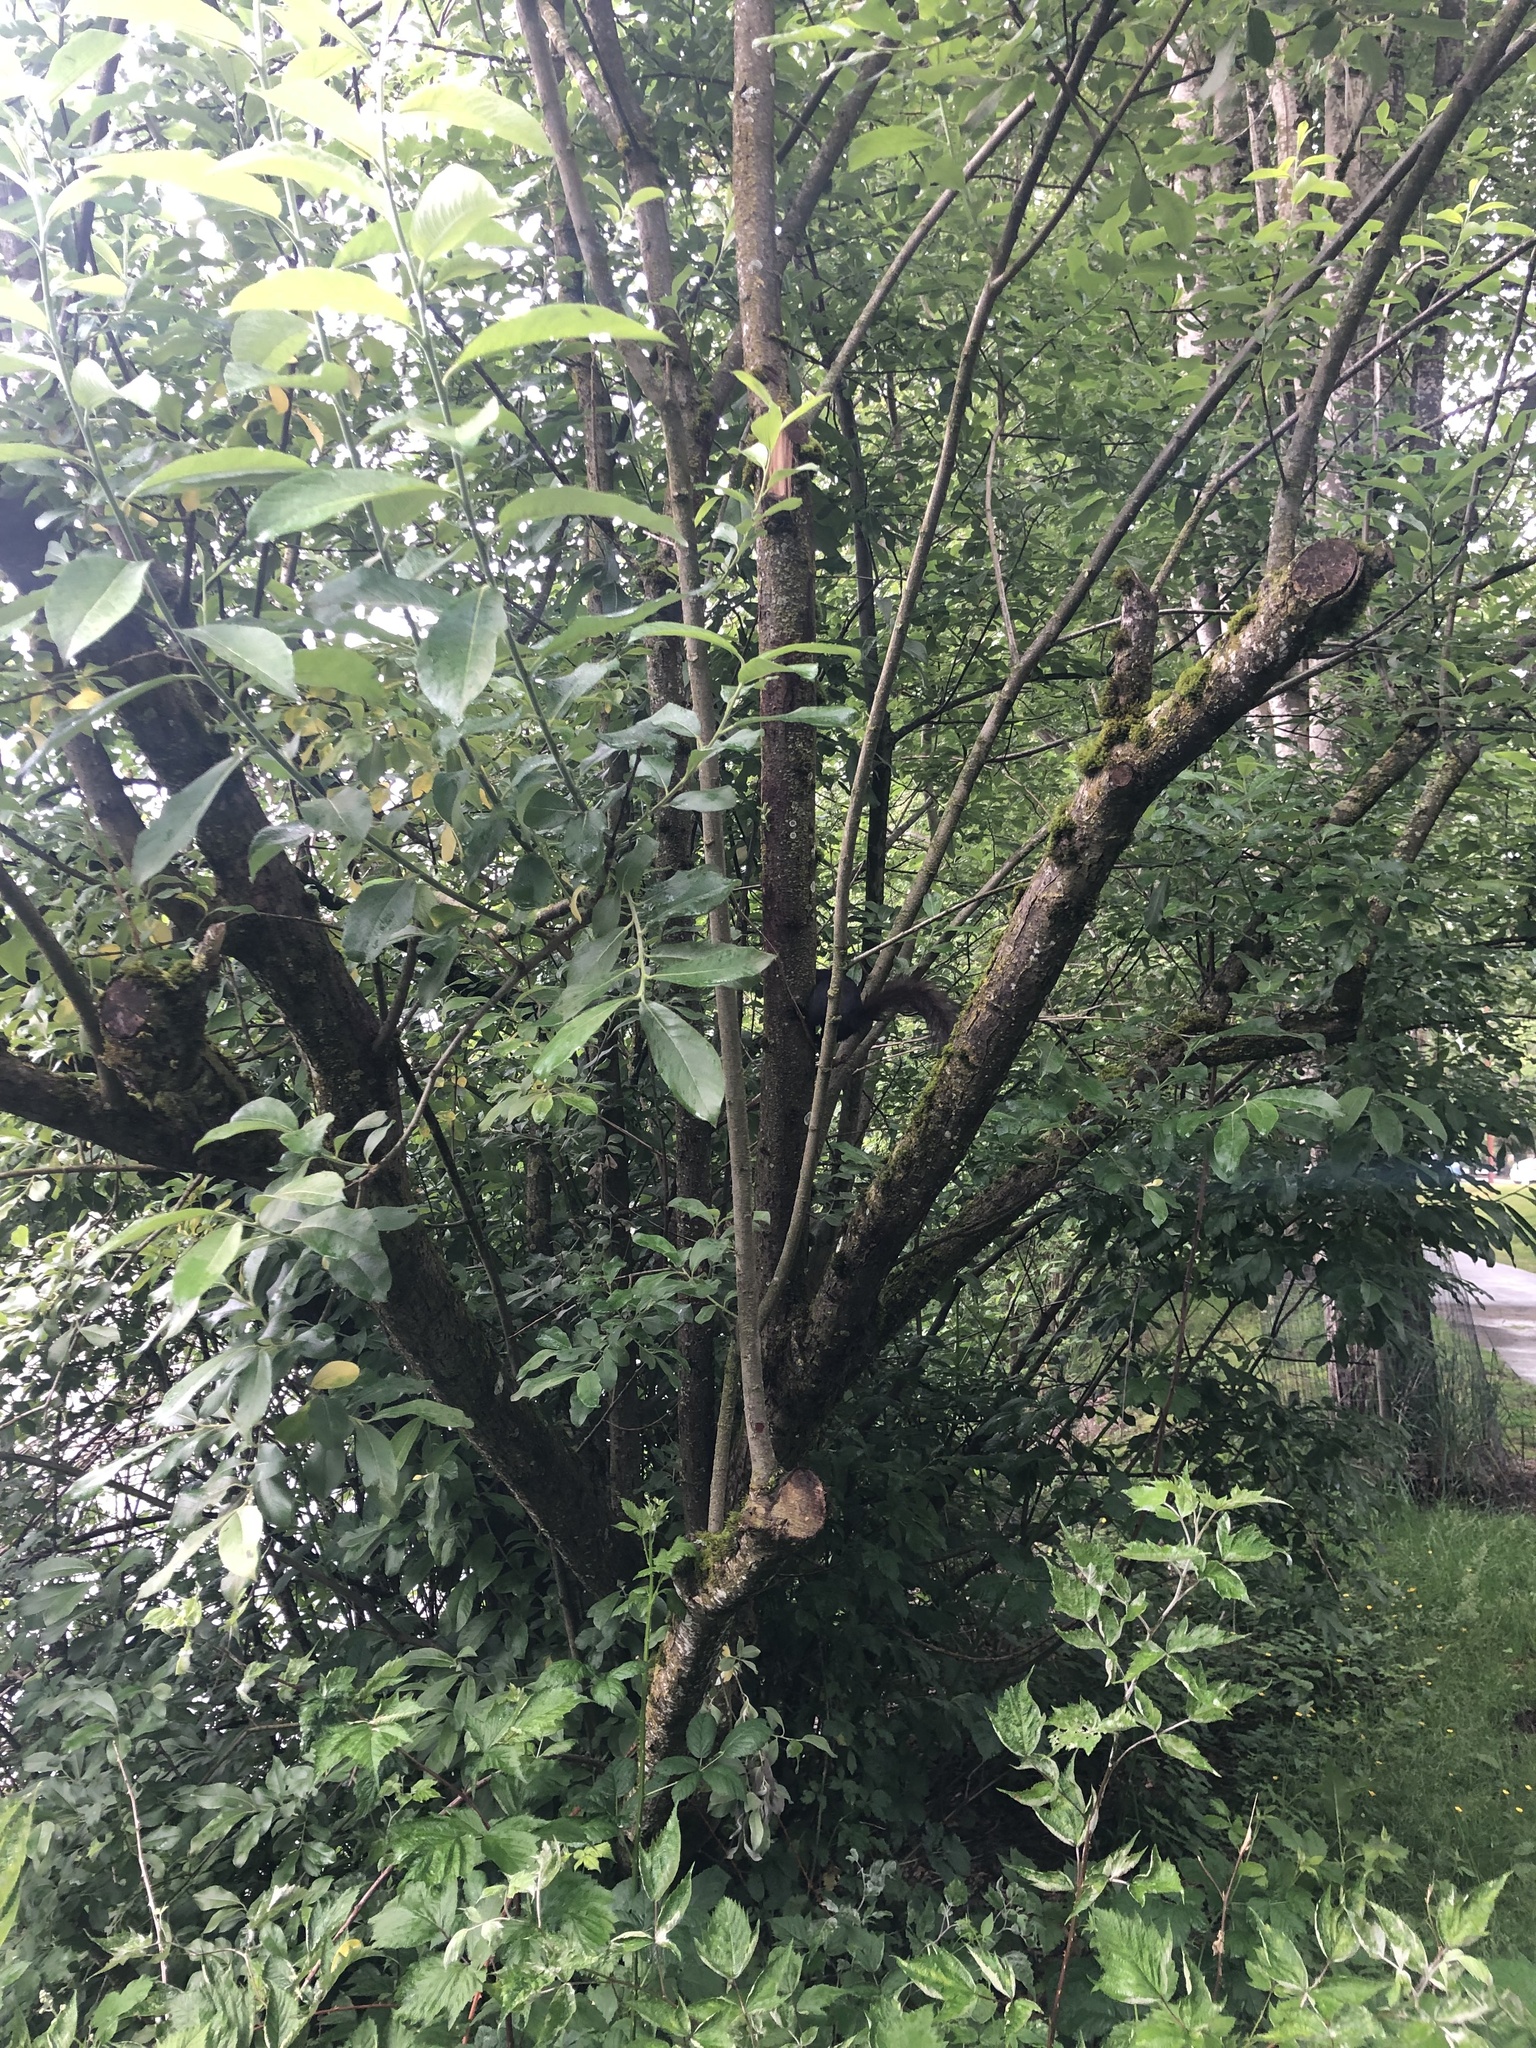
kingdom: Animalia
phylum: Chordata
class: Mammalia
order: Rodentia
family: Sciuridae
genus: Sciurus
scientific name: Sciurus carolinensis
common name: Eastern gray squirrel
